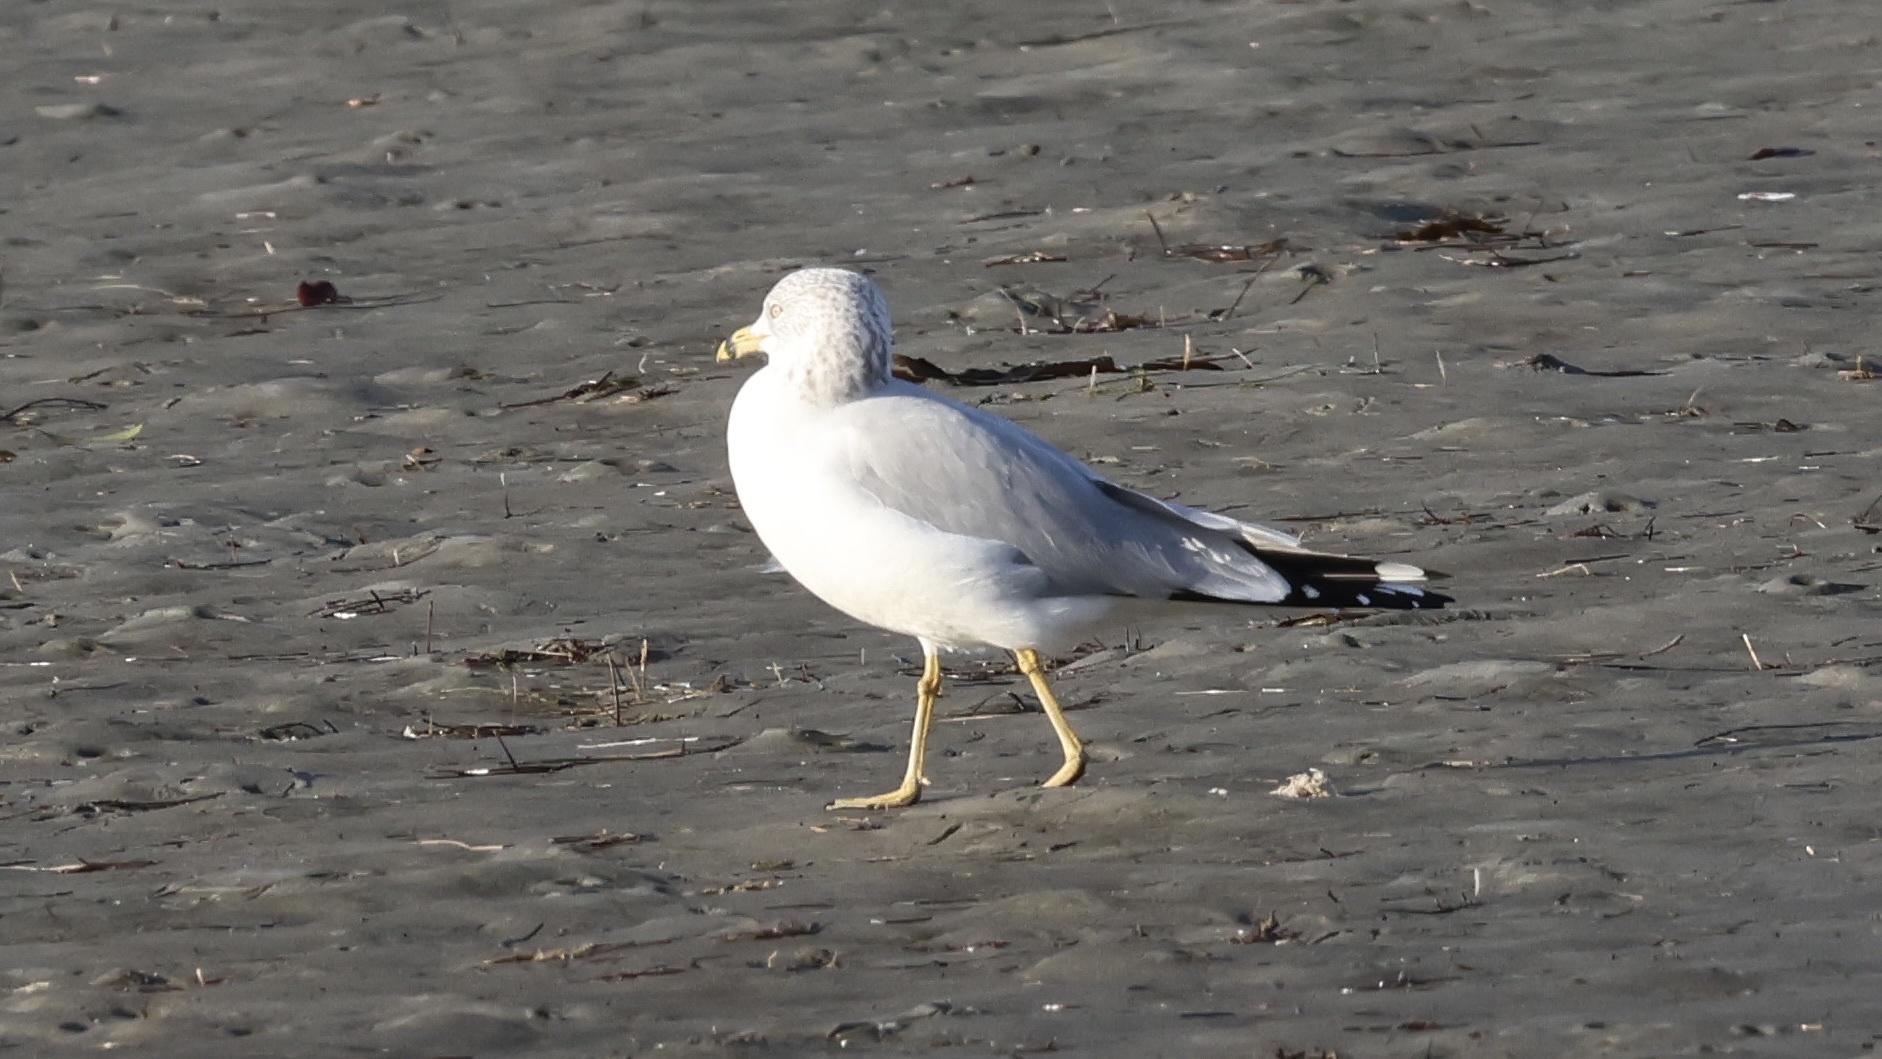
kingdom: Animalia
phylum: Chordata
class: Aves
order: Charadriiformes
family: Laridae
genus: Larus
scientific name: Larus delawarensis
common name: Ring-billed gull
